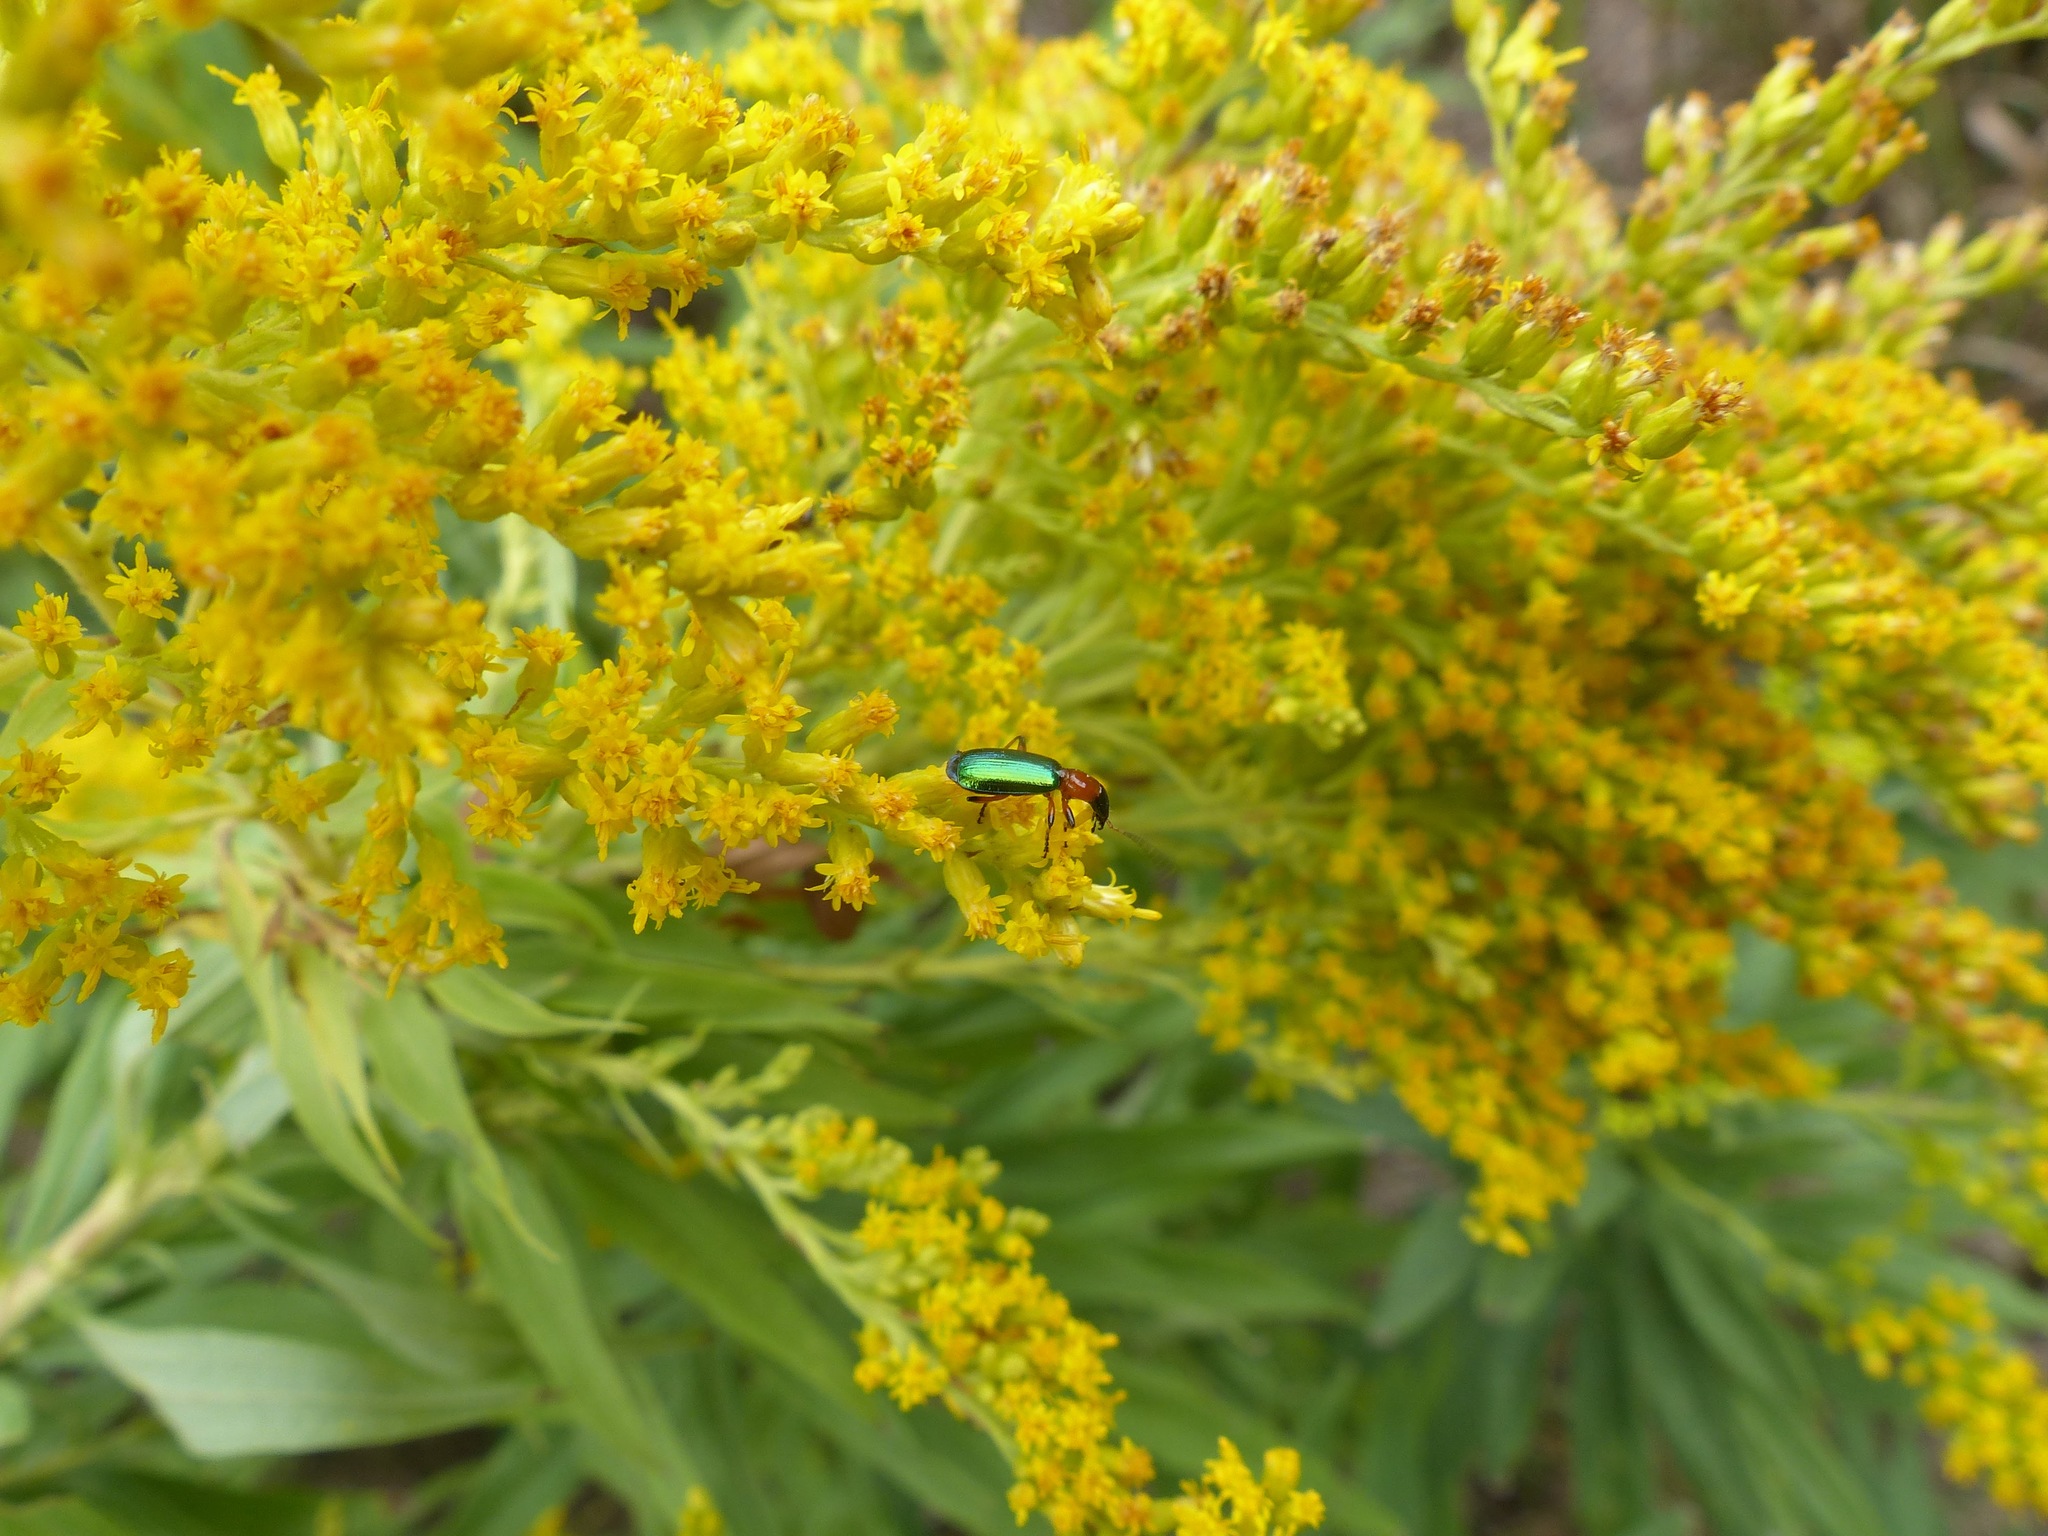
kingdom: Animalia
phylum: Arthropoda
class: Insecta
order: Coleoptera
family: Carabidae
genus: Calleida
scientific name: Calleida punctata
